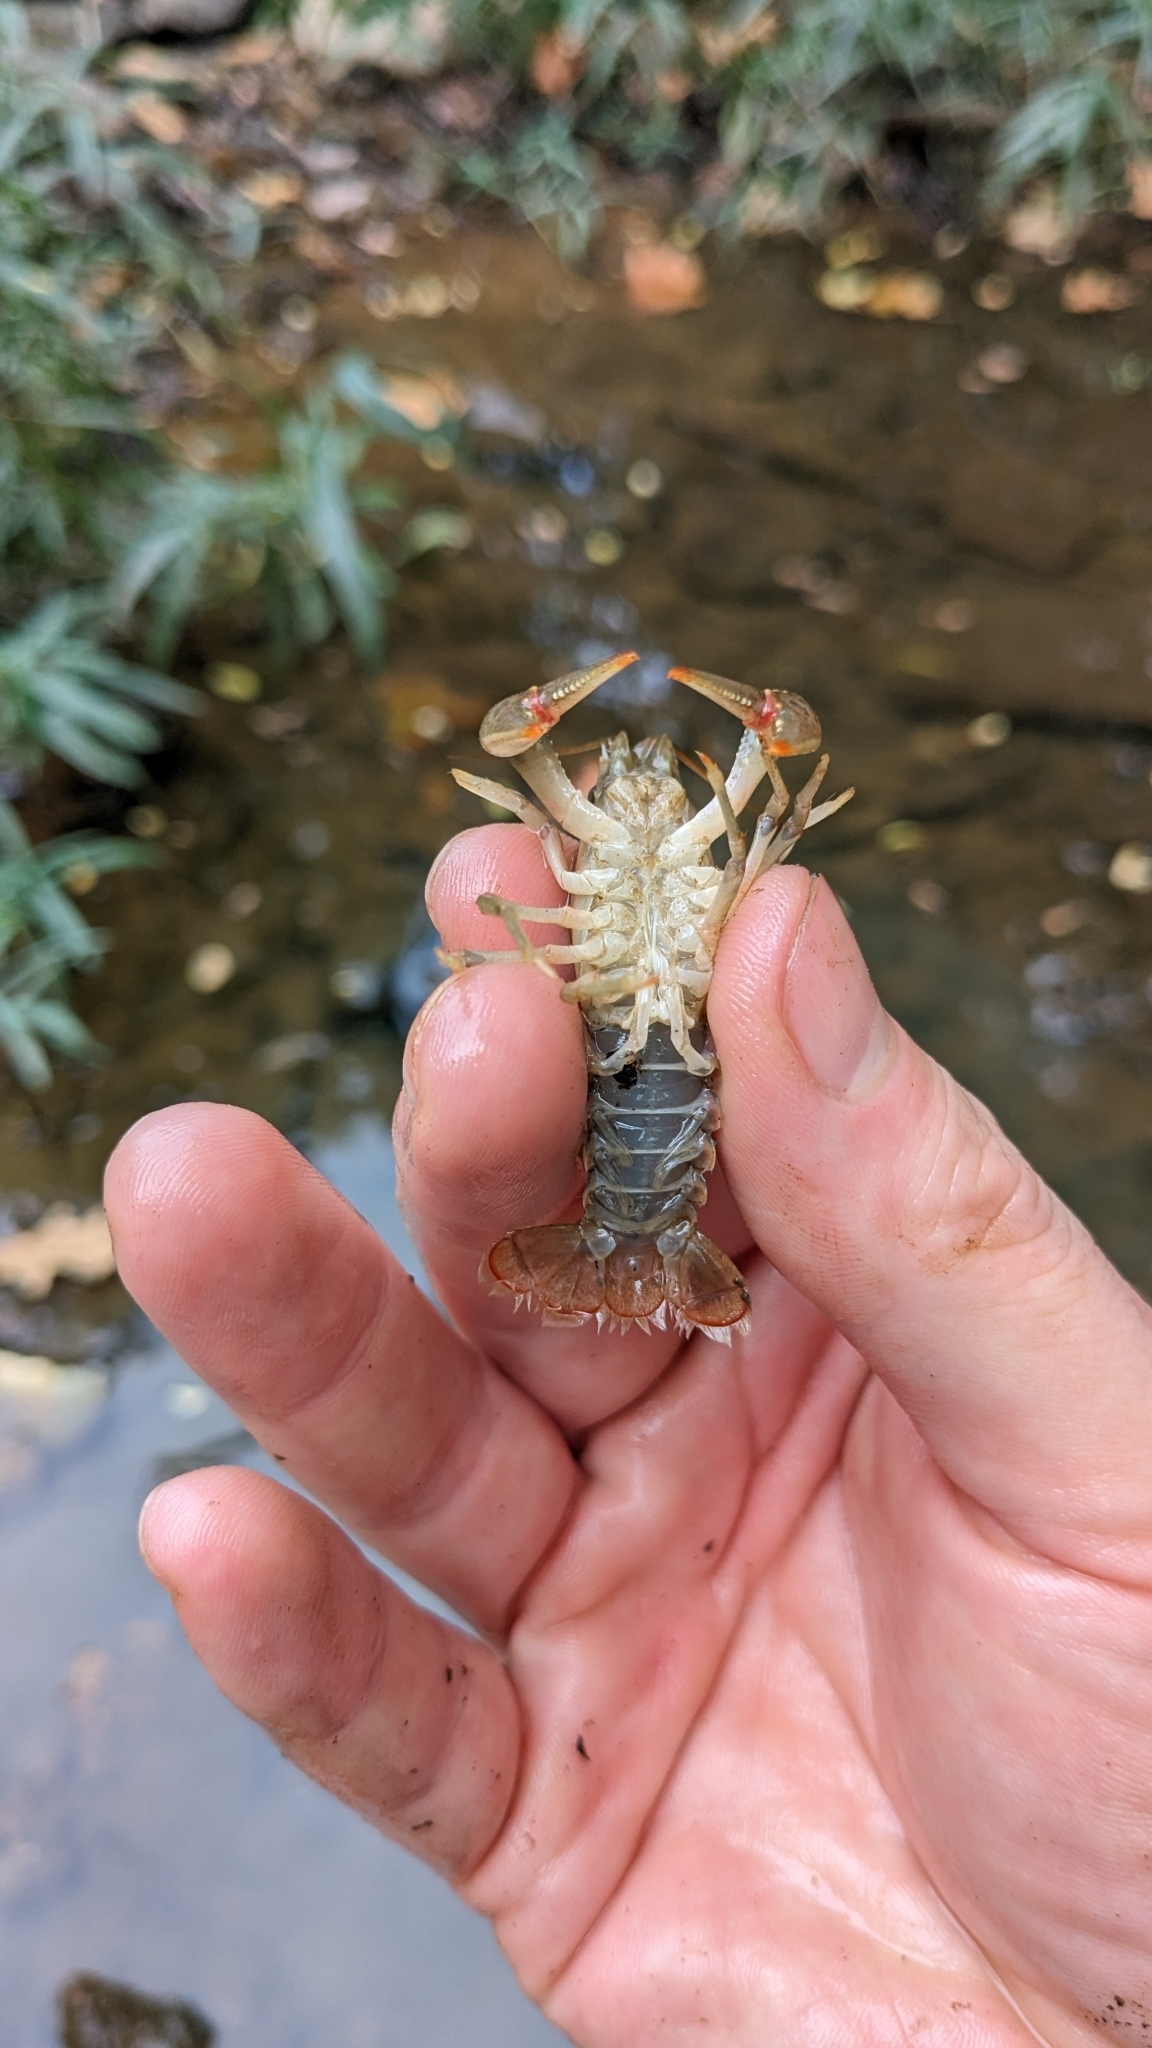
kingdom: Animalia
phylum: Arthropoda
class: Malacostraca
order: Decapoda
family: Cambaridae
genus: Faxonius
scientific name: Faxonius virilis
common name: Virile crayfish
